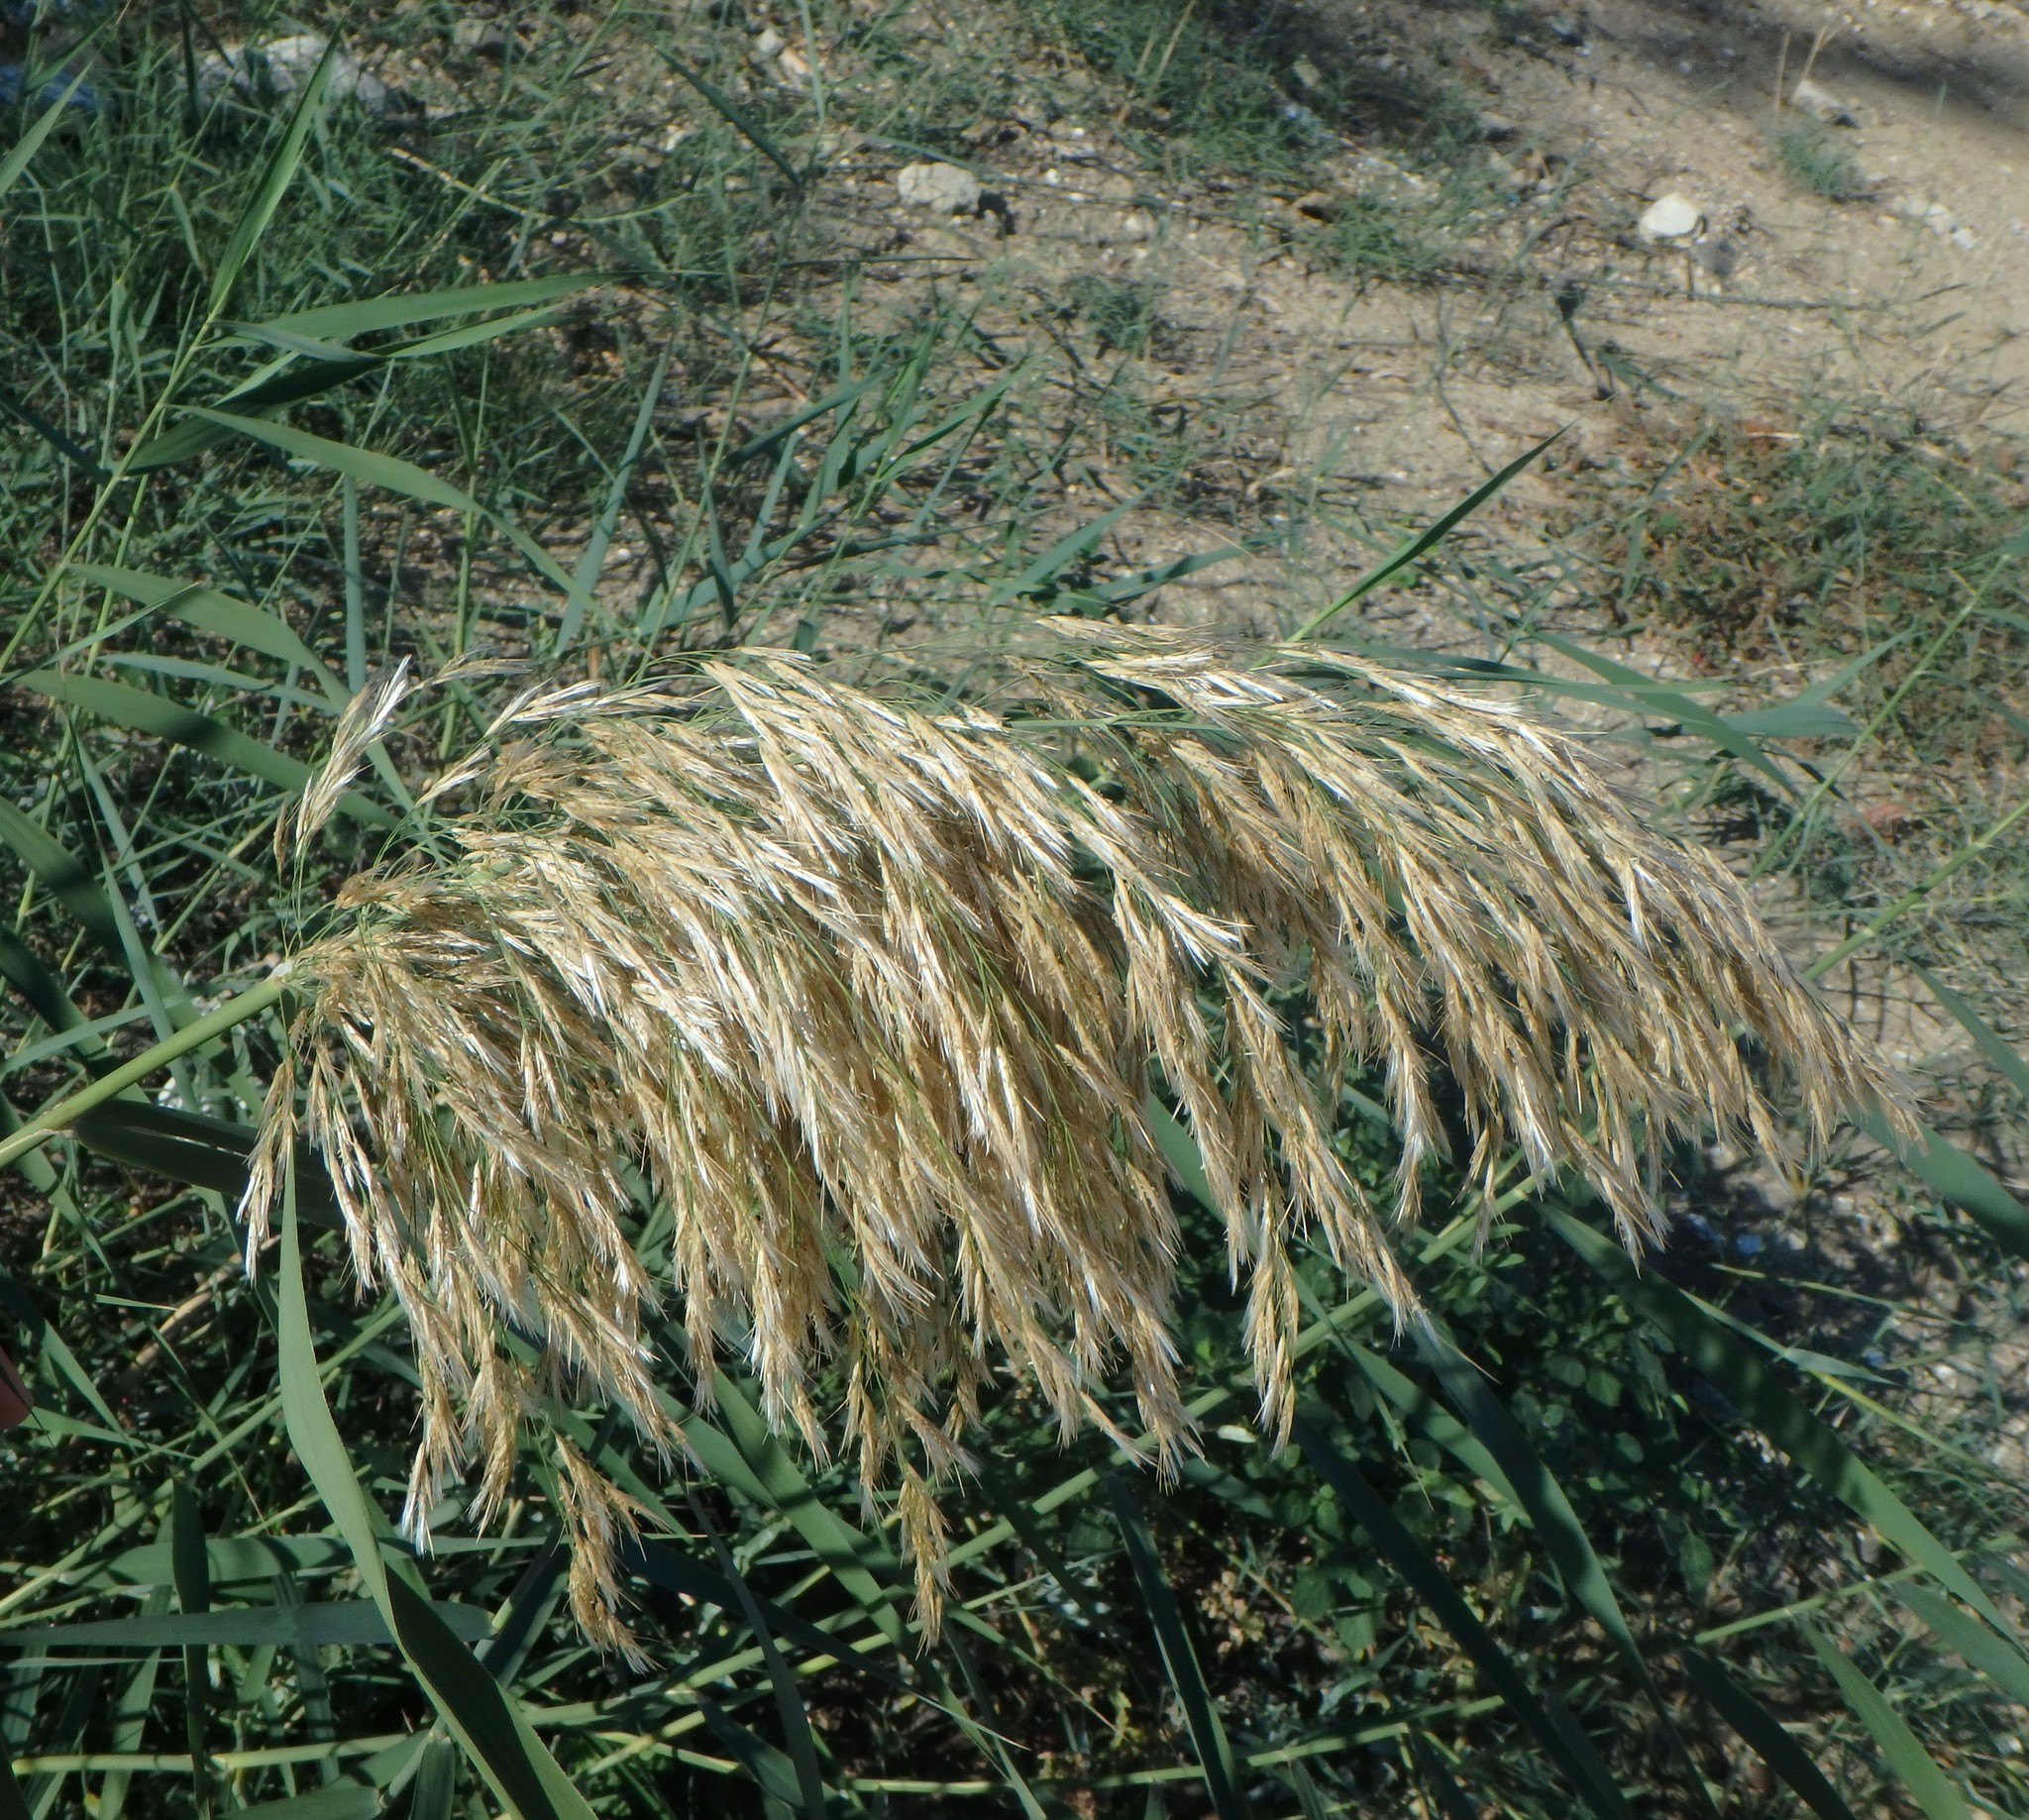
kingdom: Plantae
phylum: Tracheophyta
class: Liliopsida
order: Poales
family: Poaceae
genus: Phragmites
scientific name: Phragmites australis
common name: Common reed
